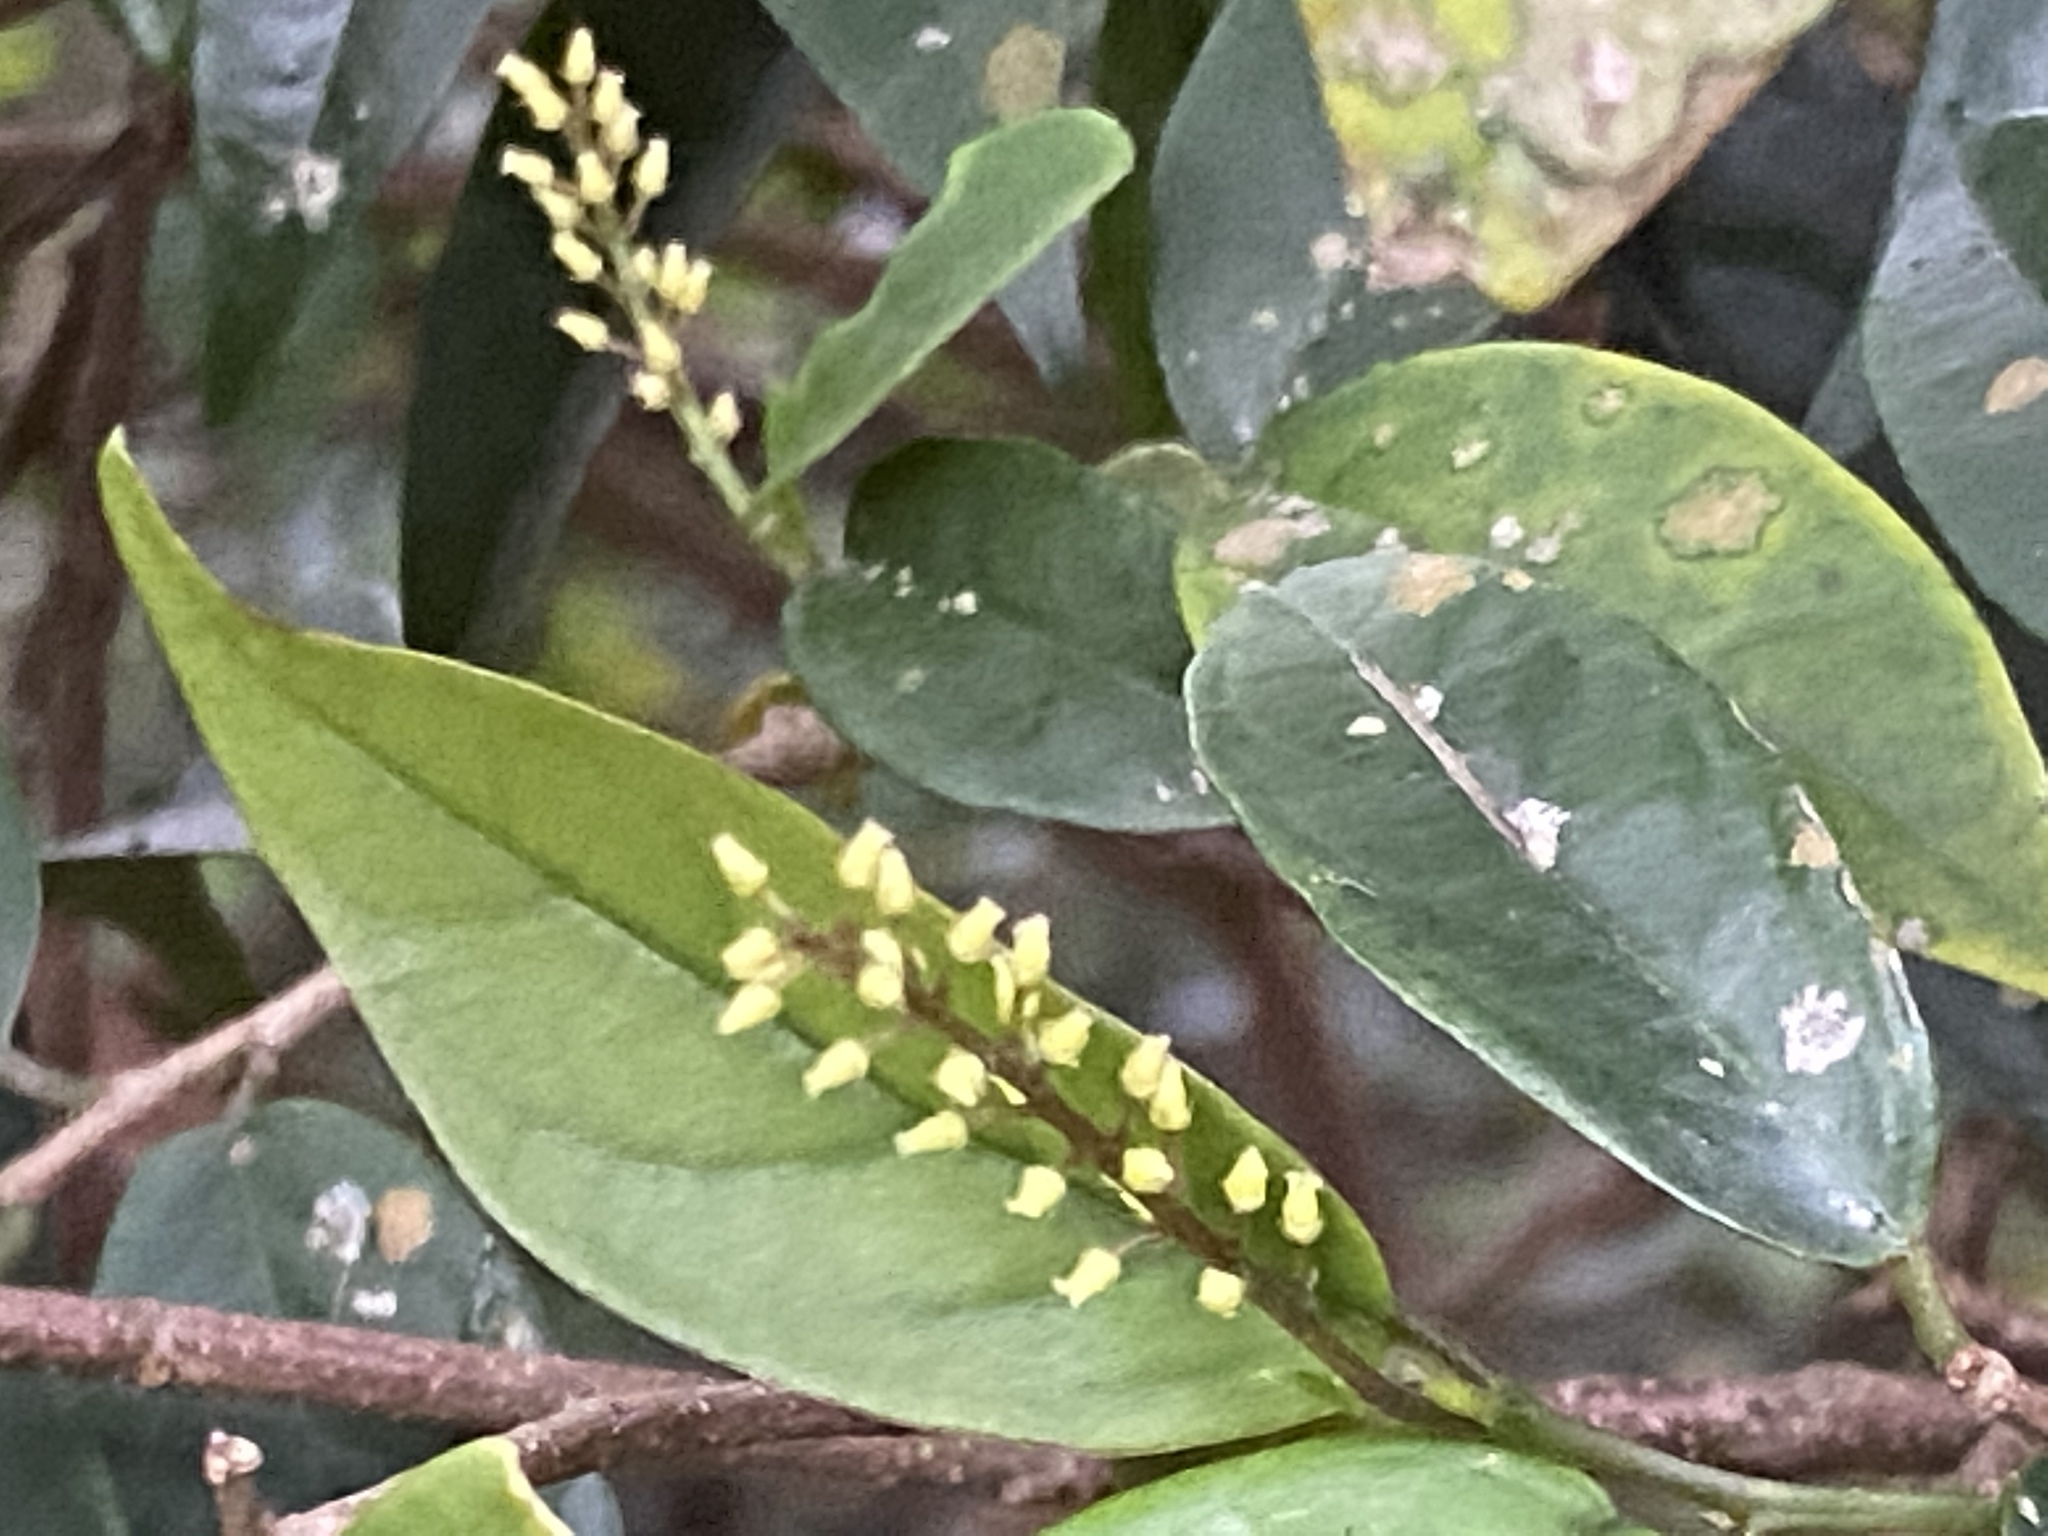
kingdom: Plantae
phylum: Tracheophyta
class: Magnoliopsida
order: Malpighiales
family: Phyllanthaceae
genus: Antidesma
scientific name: Antidesma japonicum
